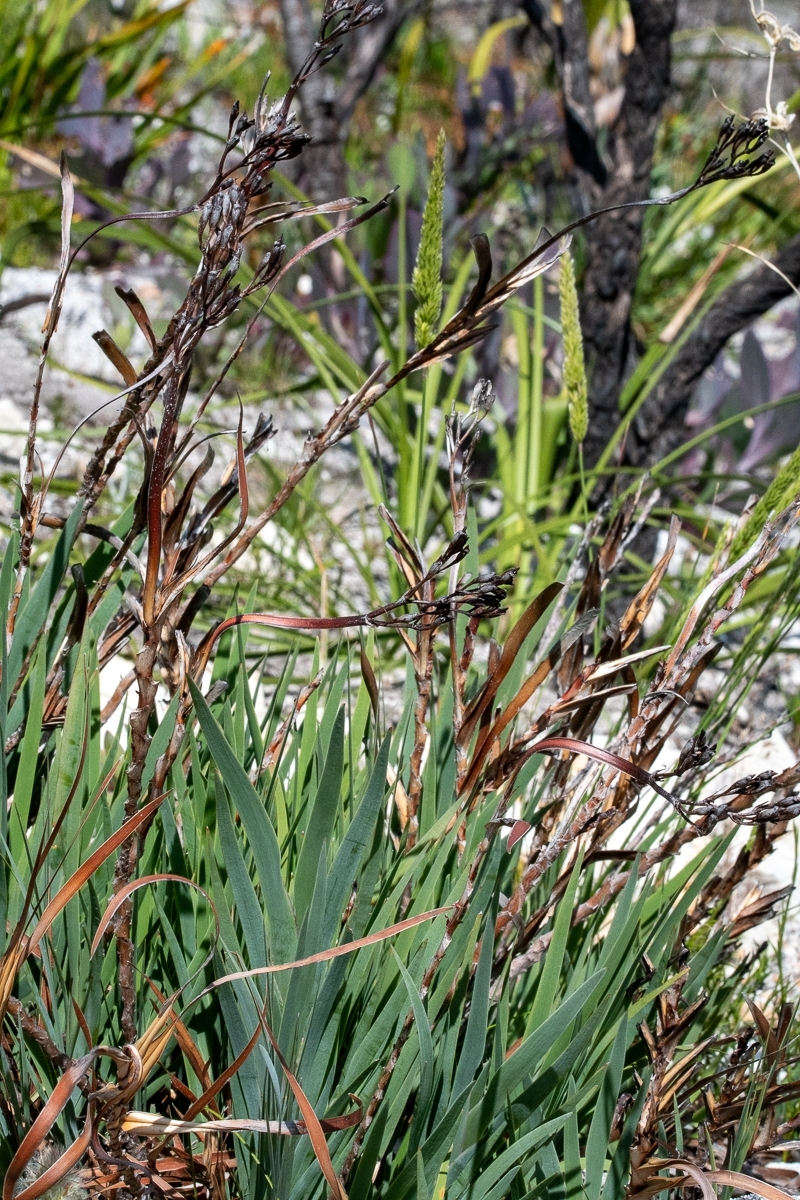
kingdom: Plantae
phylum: Tracheophyta
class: Liliopsida
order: Asparagales
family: Iridaceae
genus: Nivenia
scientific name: Nivenia stokoei
